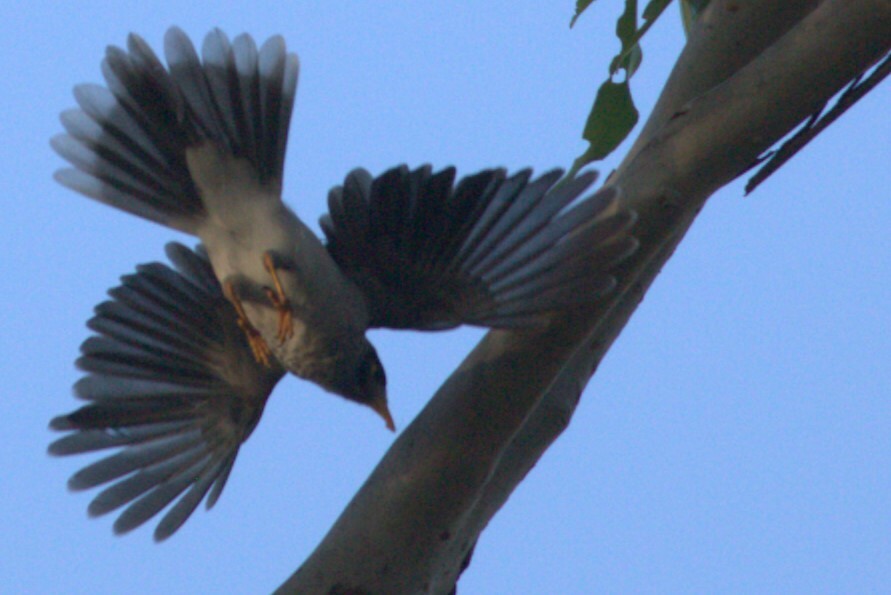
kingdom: Animalia
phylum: Chordata
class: Aves
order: Passeriformes
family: Meliphagidae
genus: Manorina
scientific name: Manorina melanocephala
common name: Noisy miner
